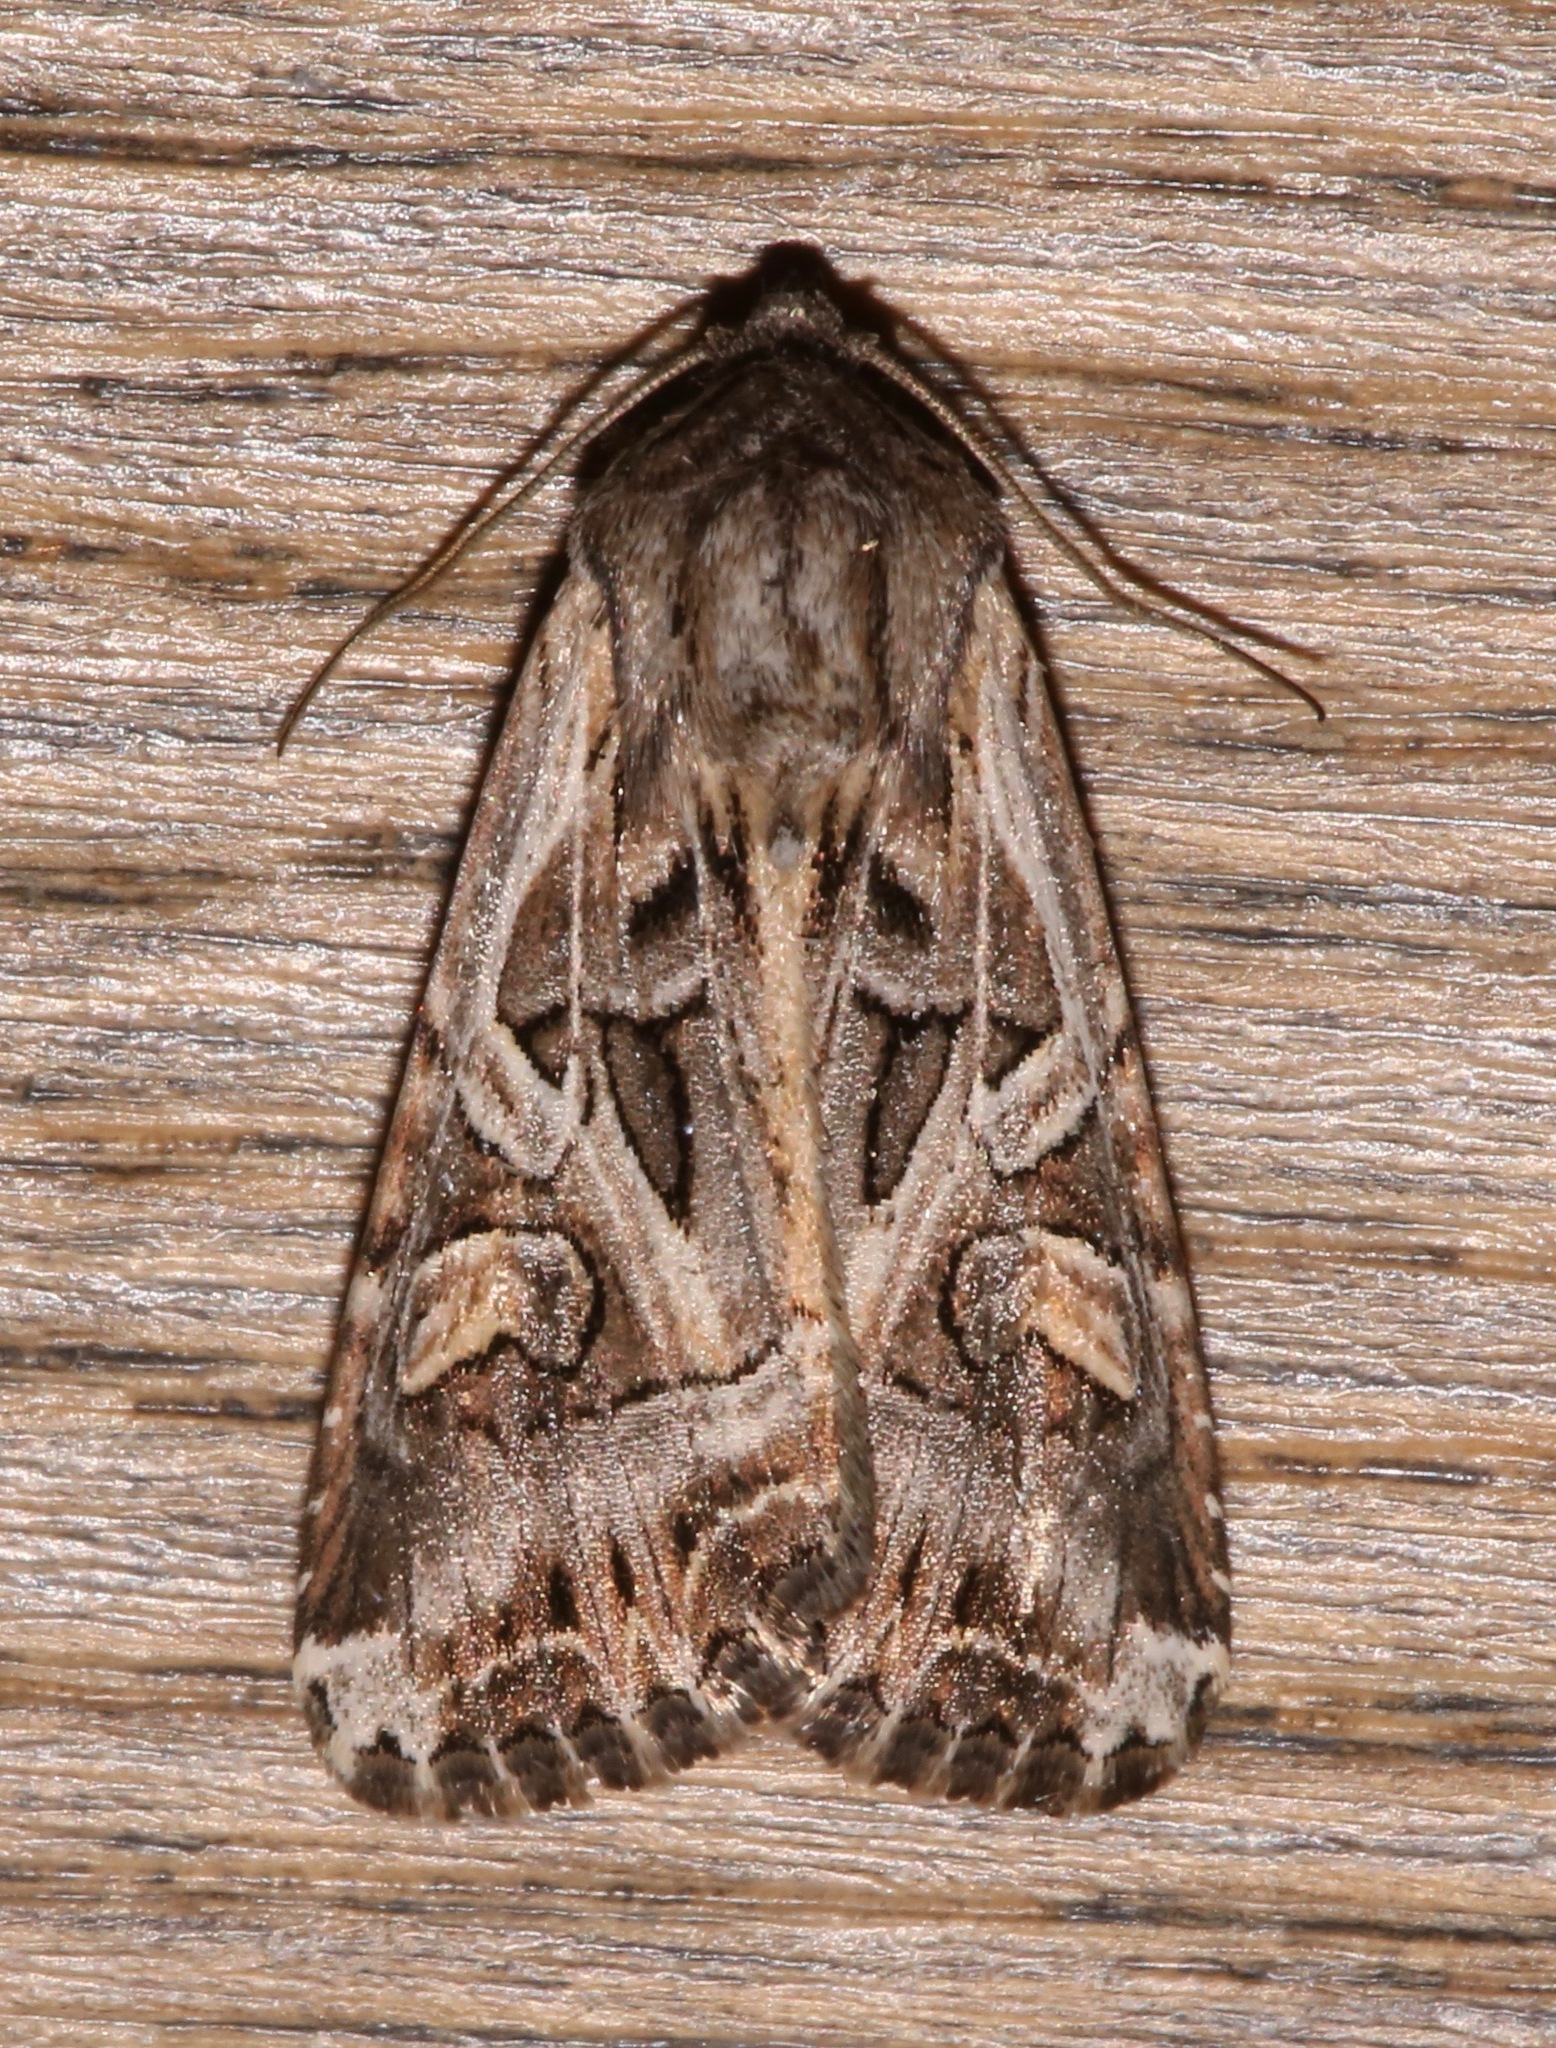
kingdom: Animalia
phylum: Arthropoda
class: Insecta
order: Lepidoptera
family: Noctuidae
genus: Trichordestra
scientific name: Trichordestra prodeniformis
